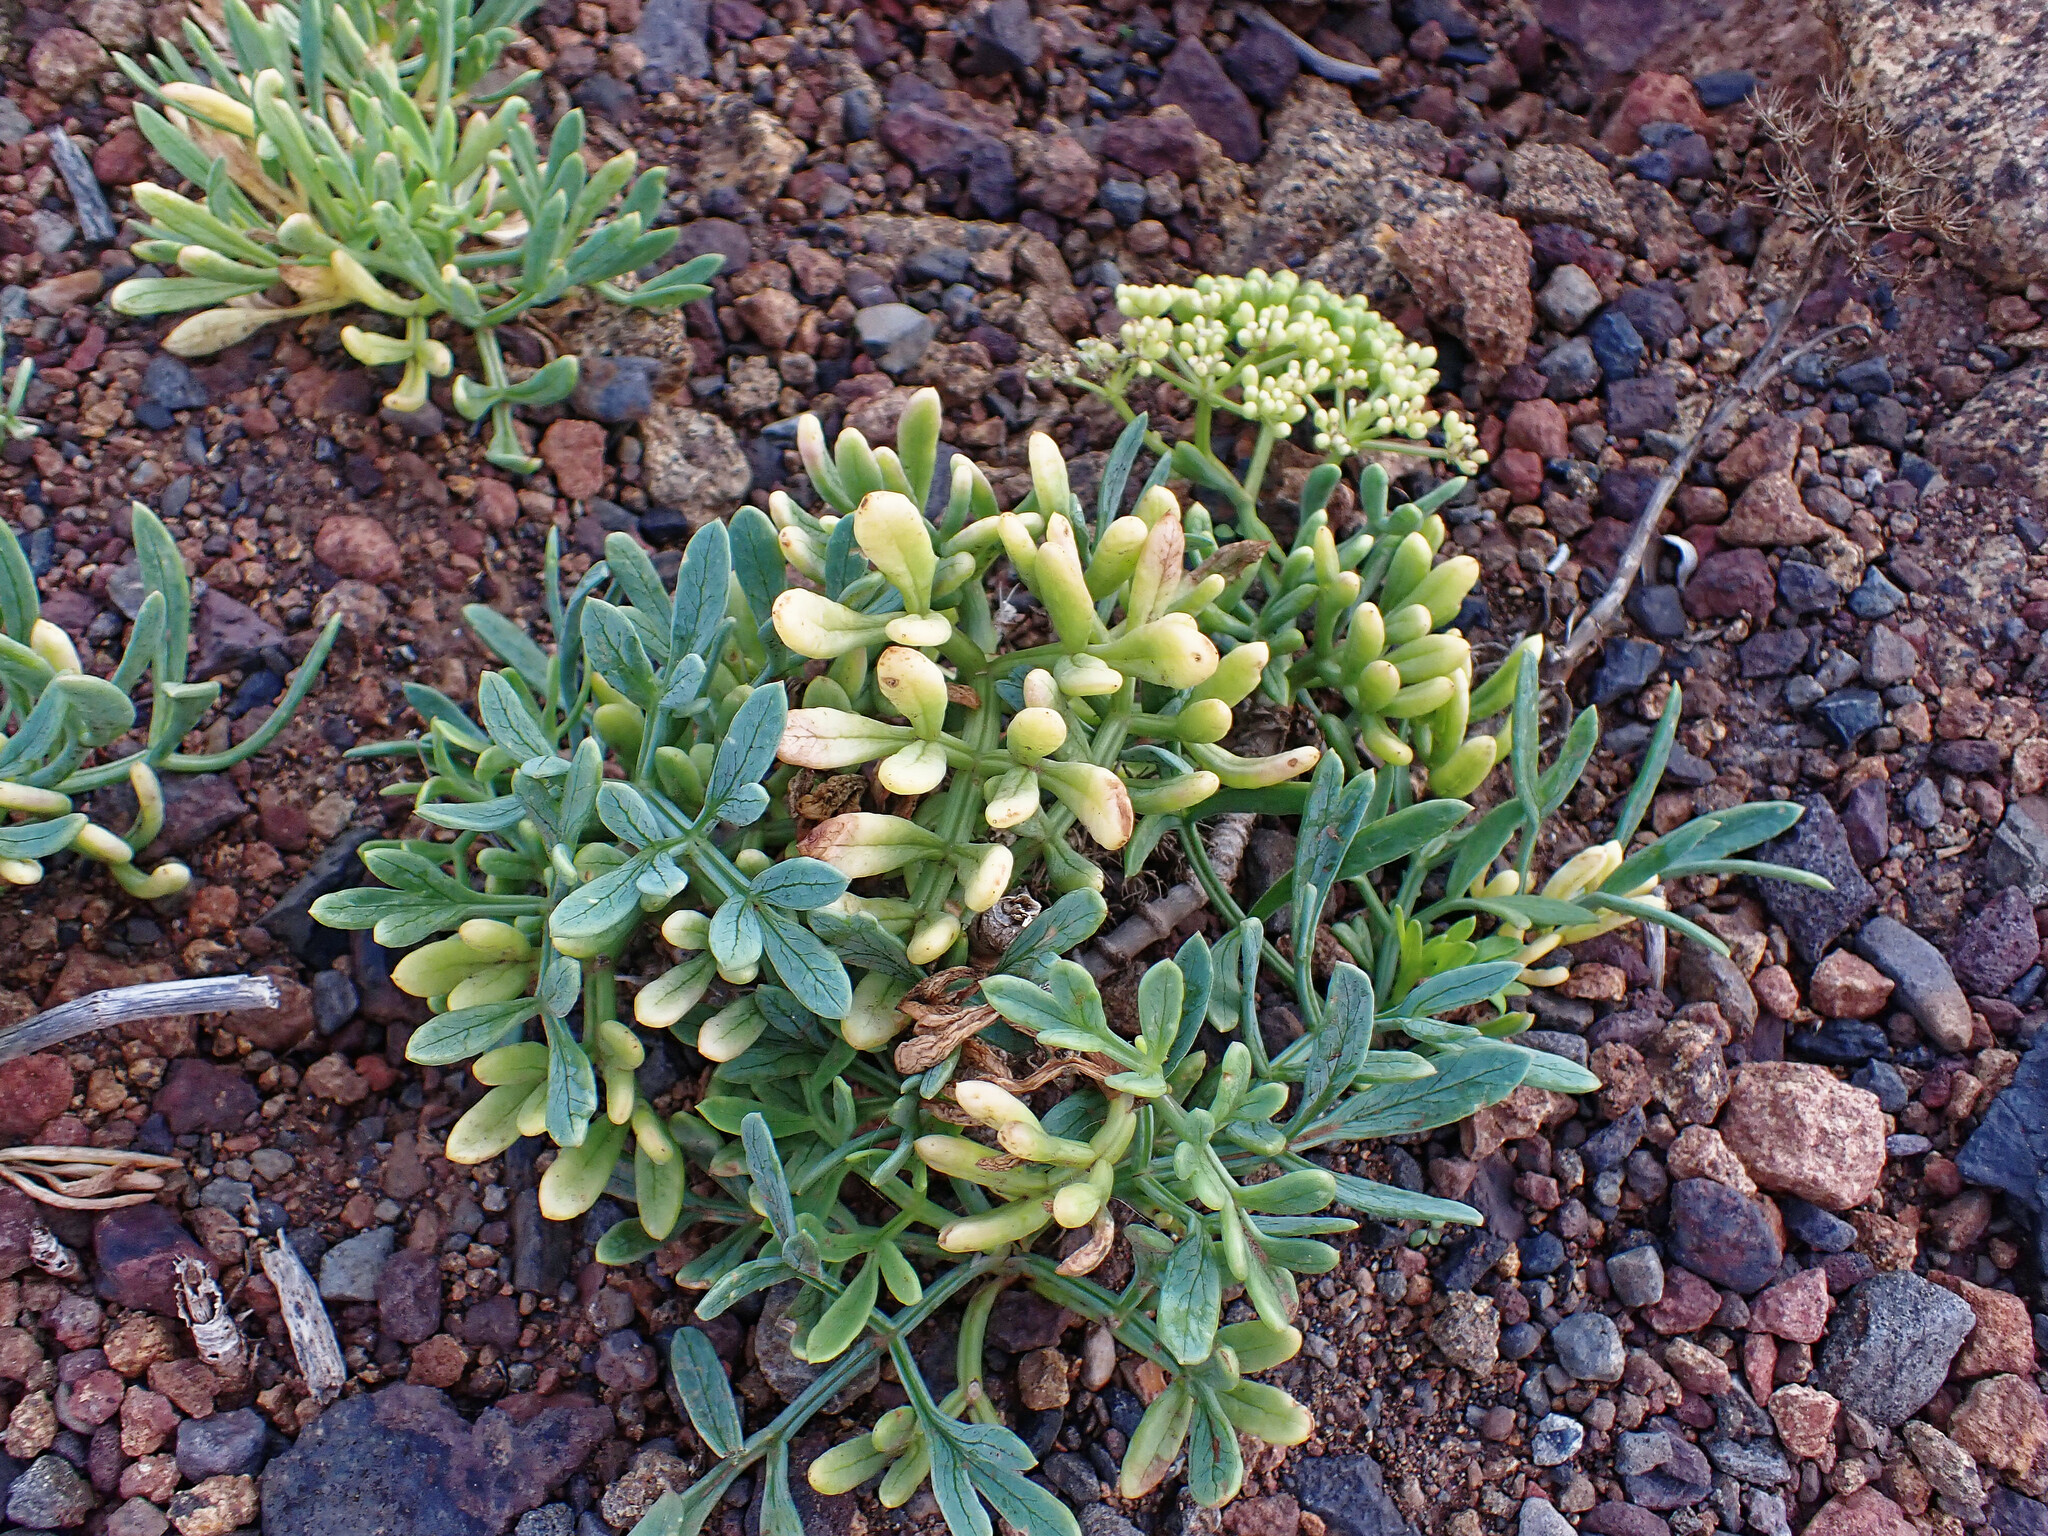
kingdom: Plantae
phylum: Tracheophyta
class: Magnoliopsida
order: Apiales
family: Apiaceae
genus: Crithmum
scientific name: Crithmum maritimum
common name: Rock samphire
